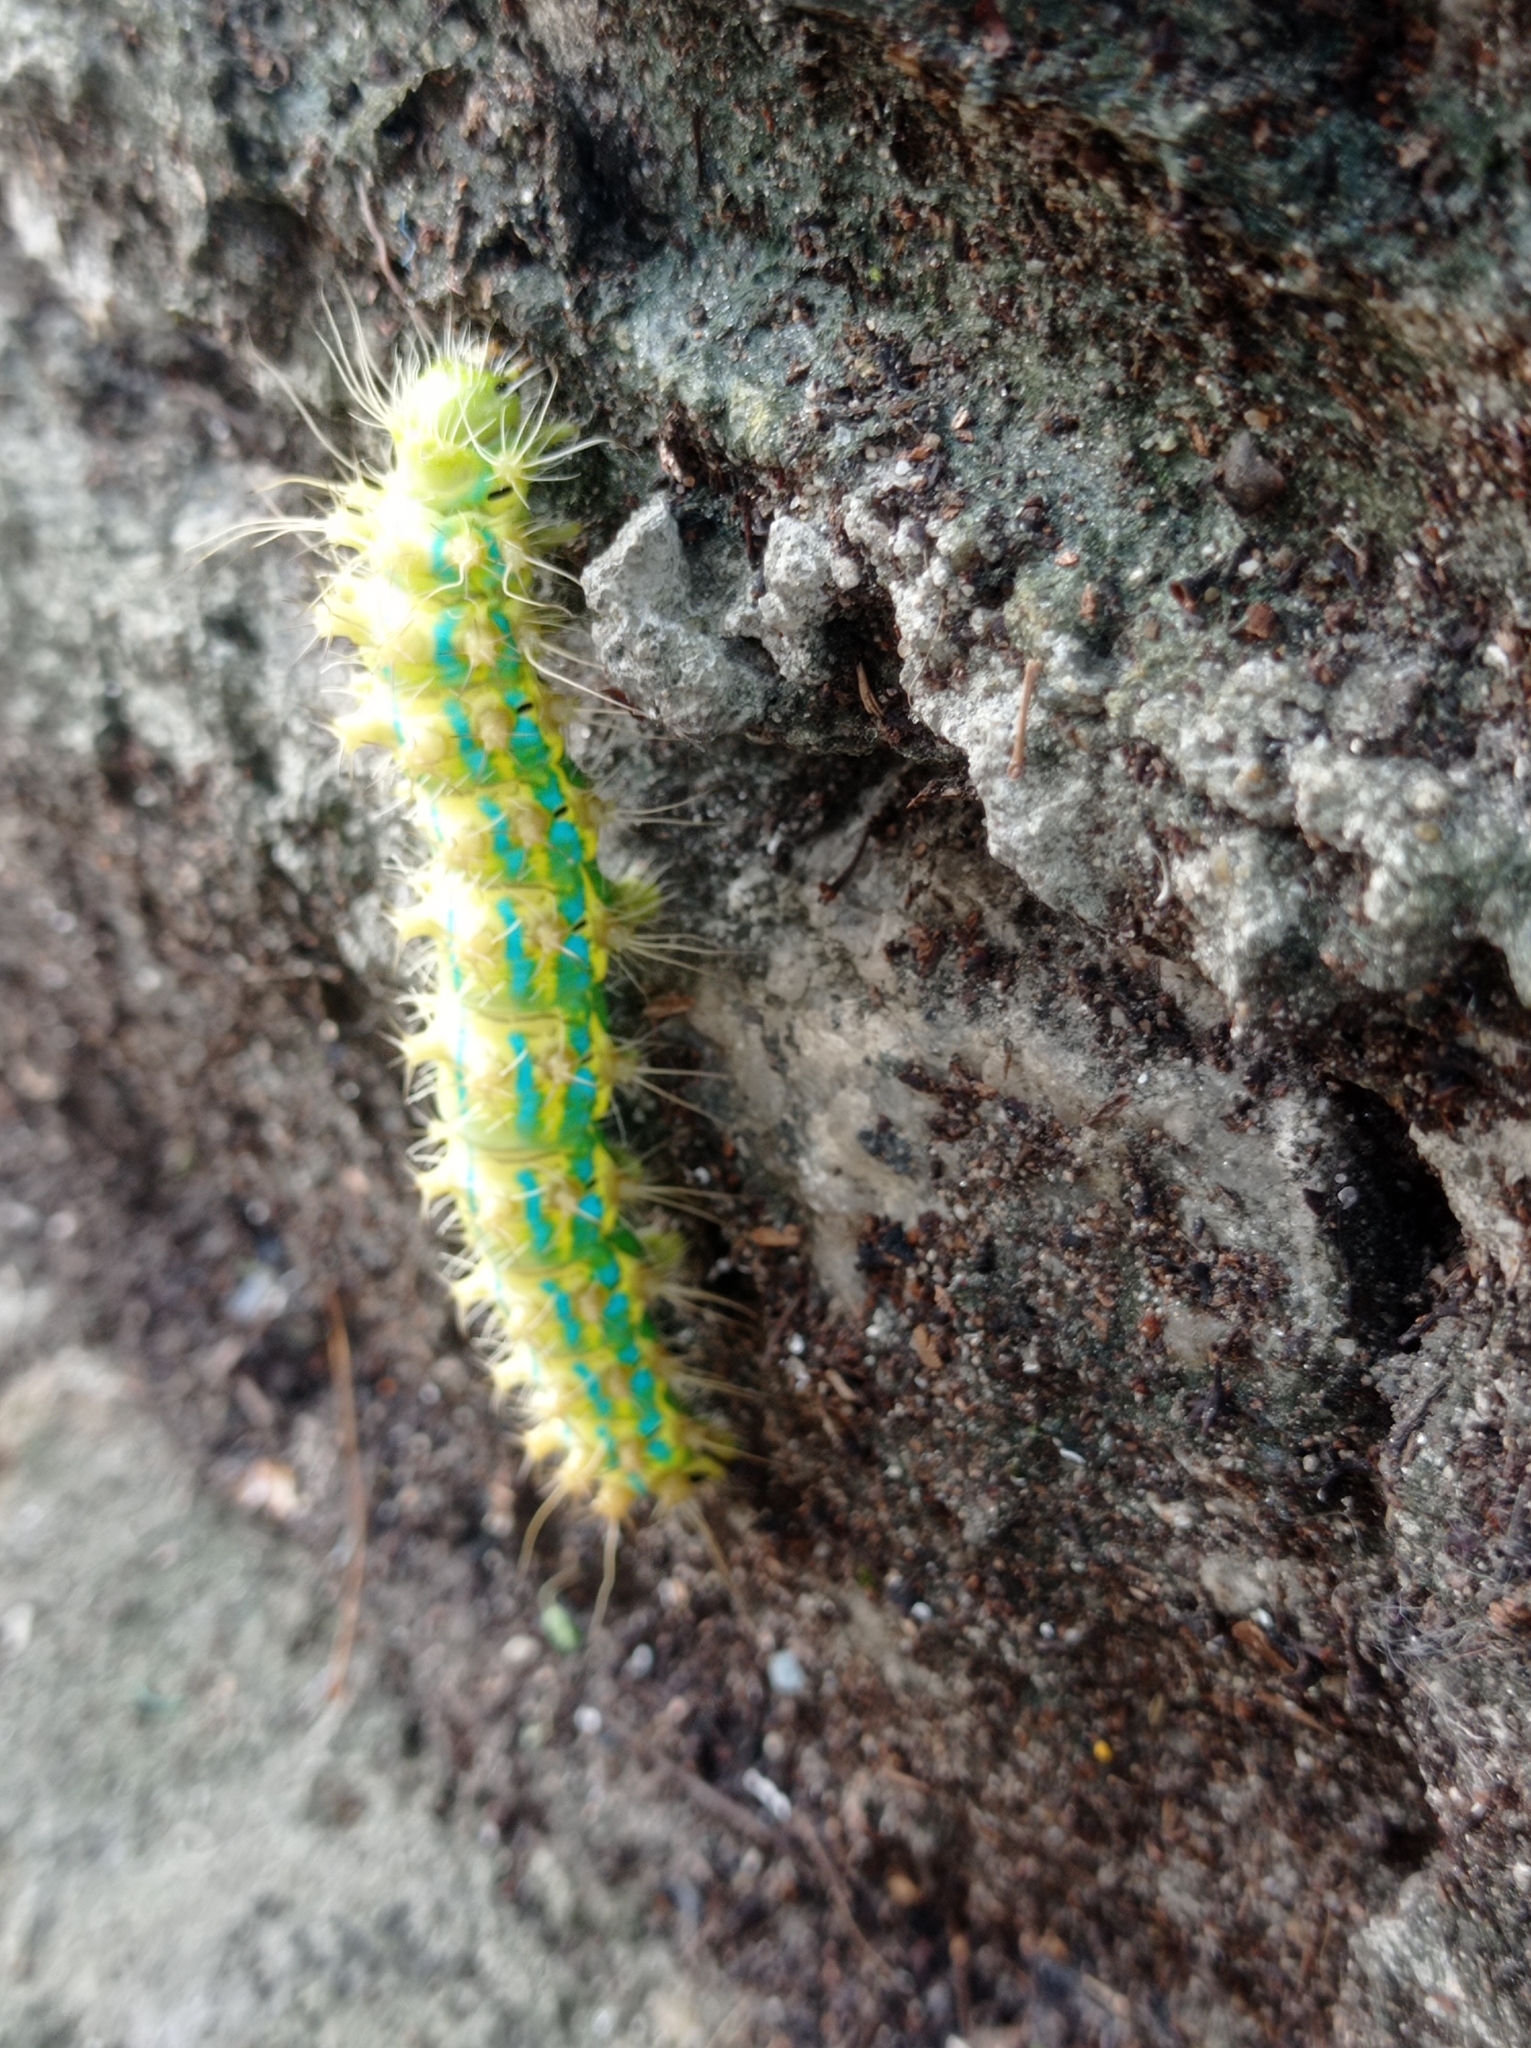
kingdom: Animalia
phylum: Arthropoda
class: Insecta
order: Lepidoptera
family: Saturniidae
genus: Saturnia
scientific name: Saturnia pyretorum
